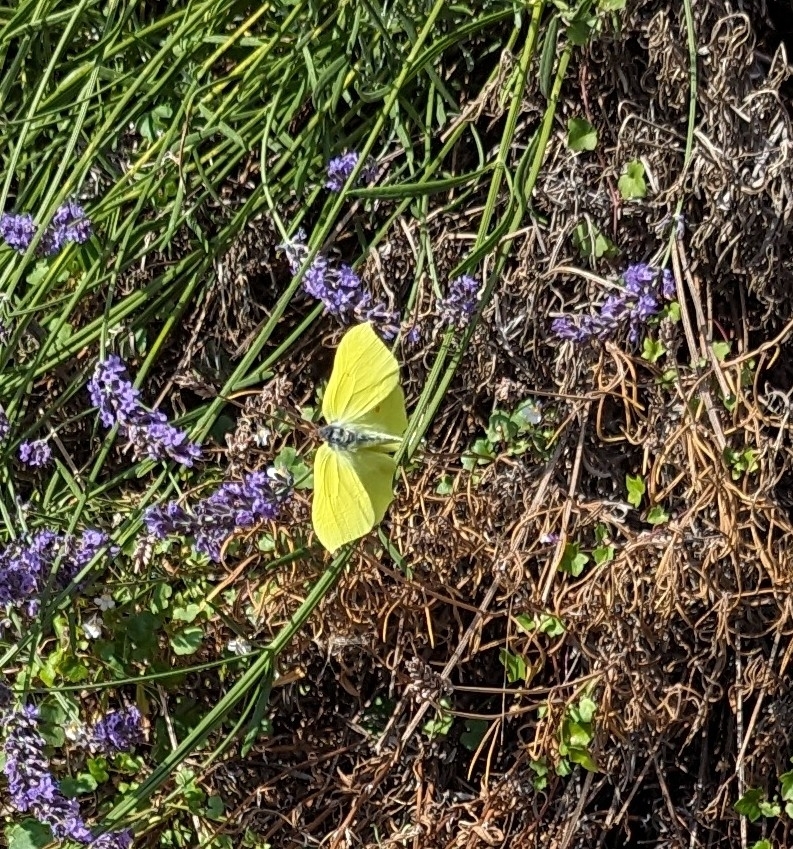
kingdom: Animalia
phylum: Arthropoda
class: Insecta
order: Lepidoptera
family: Pieridae
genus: Gonepteryx
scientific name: Gonepteryx rhamni
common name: Brimstone
